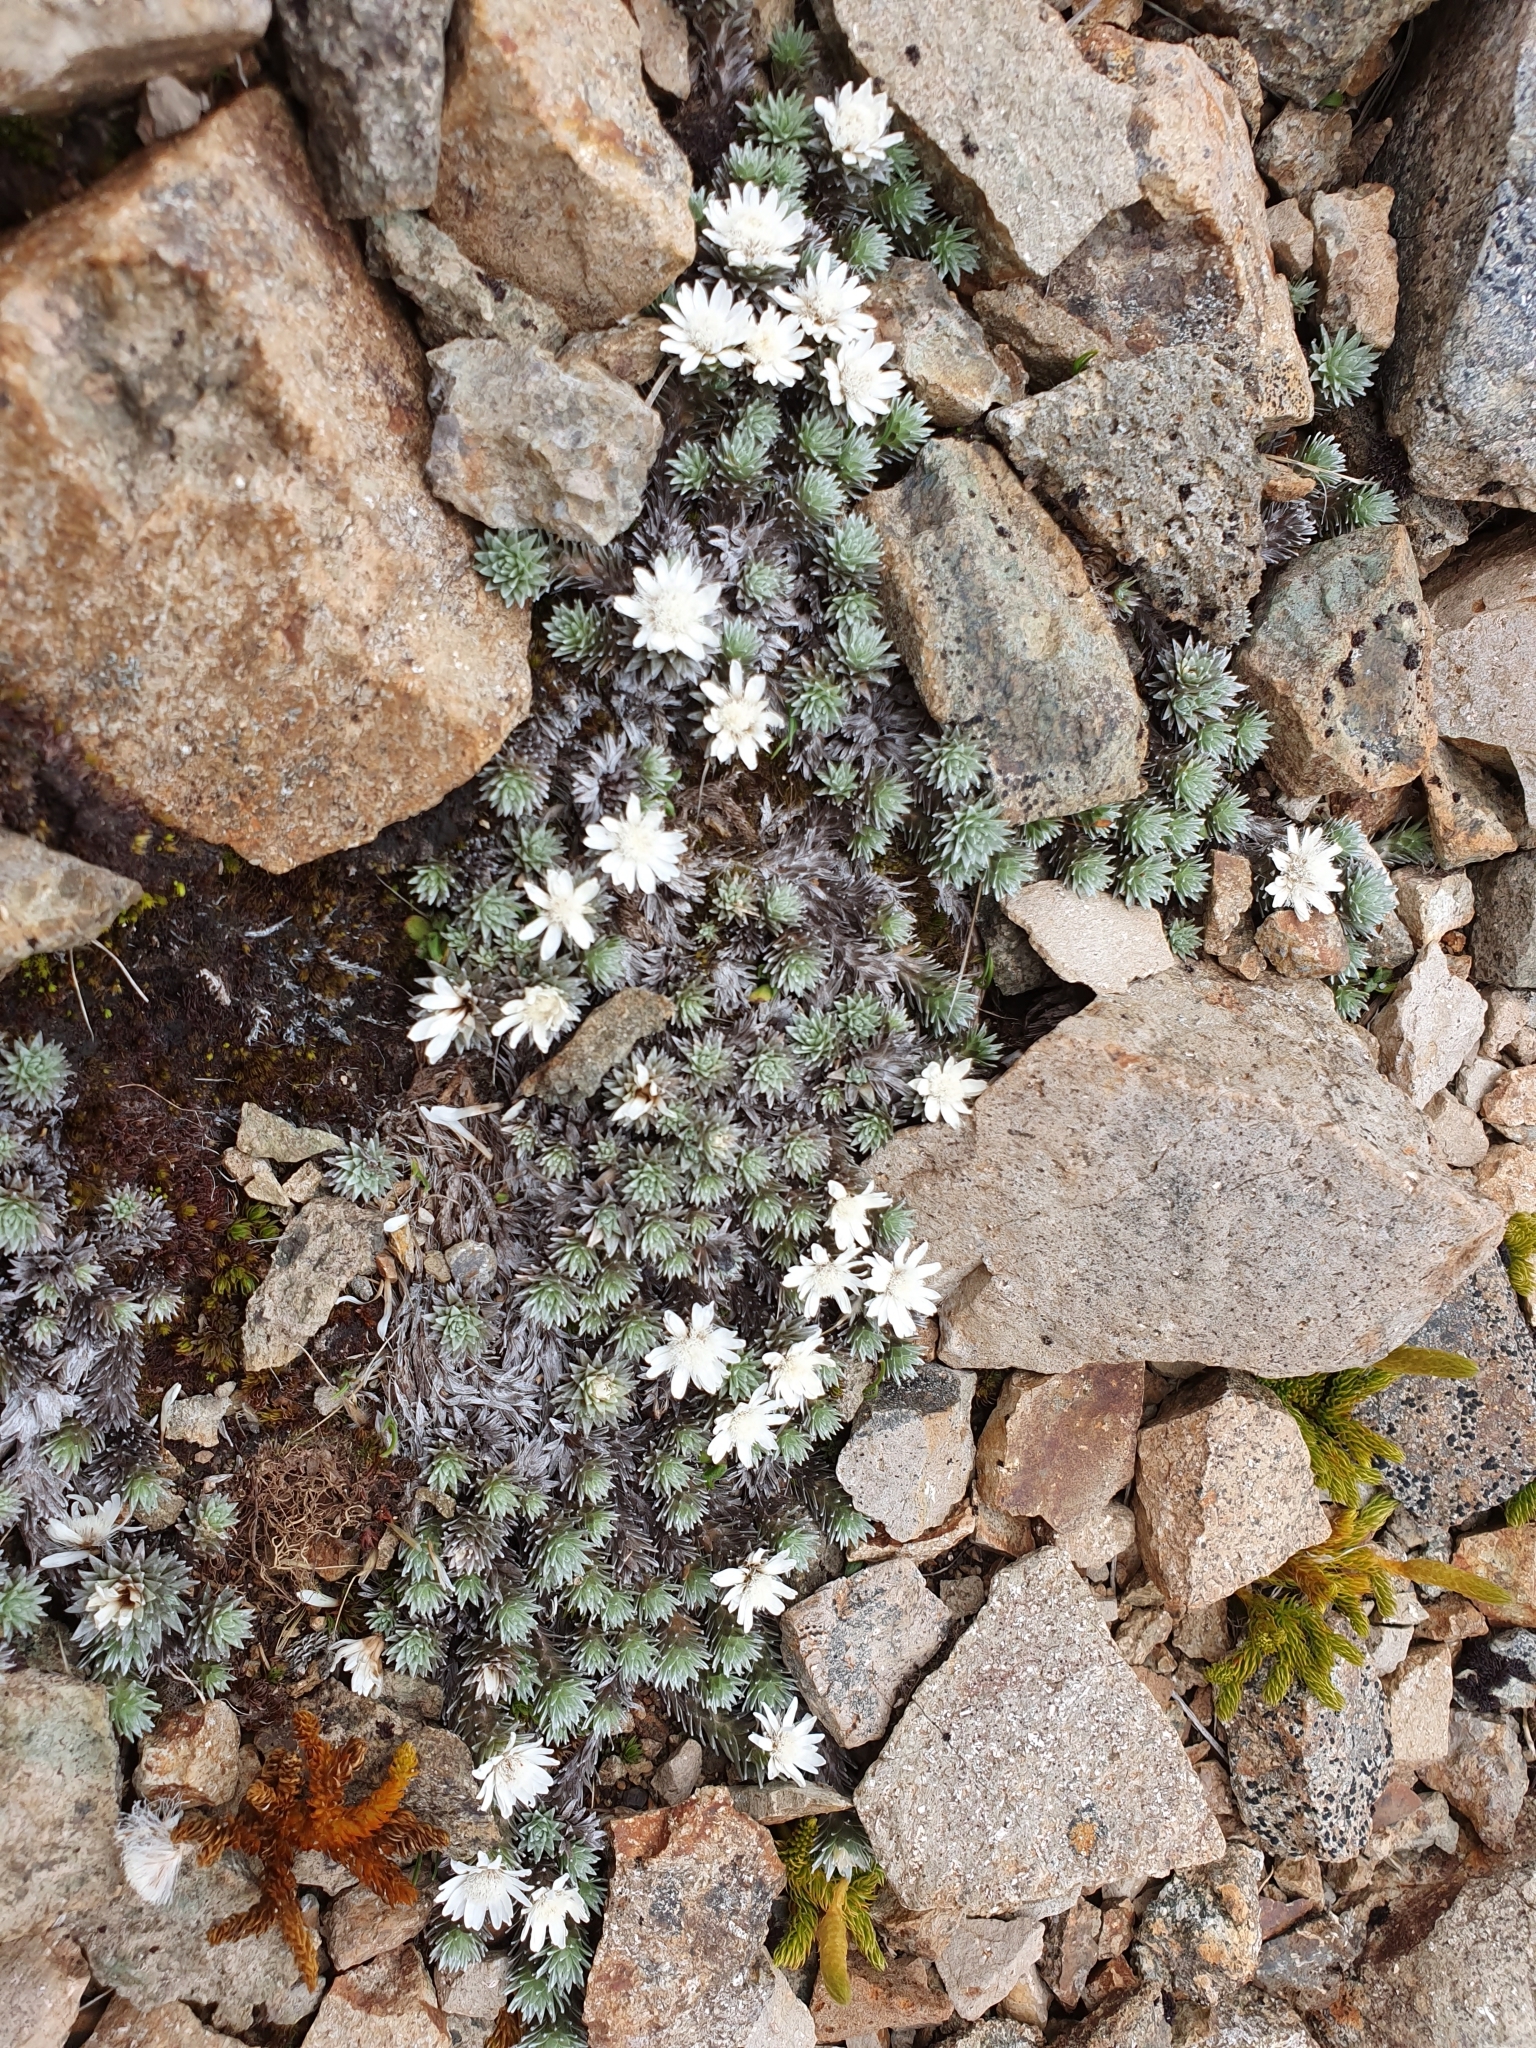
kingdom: Plantae
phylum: Tracheophyta
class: Magnoliopsida
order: Asterales
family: Asteraceae
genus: Raoulia
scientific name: Raoulia grandiflora
